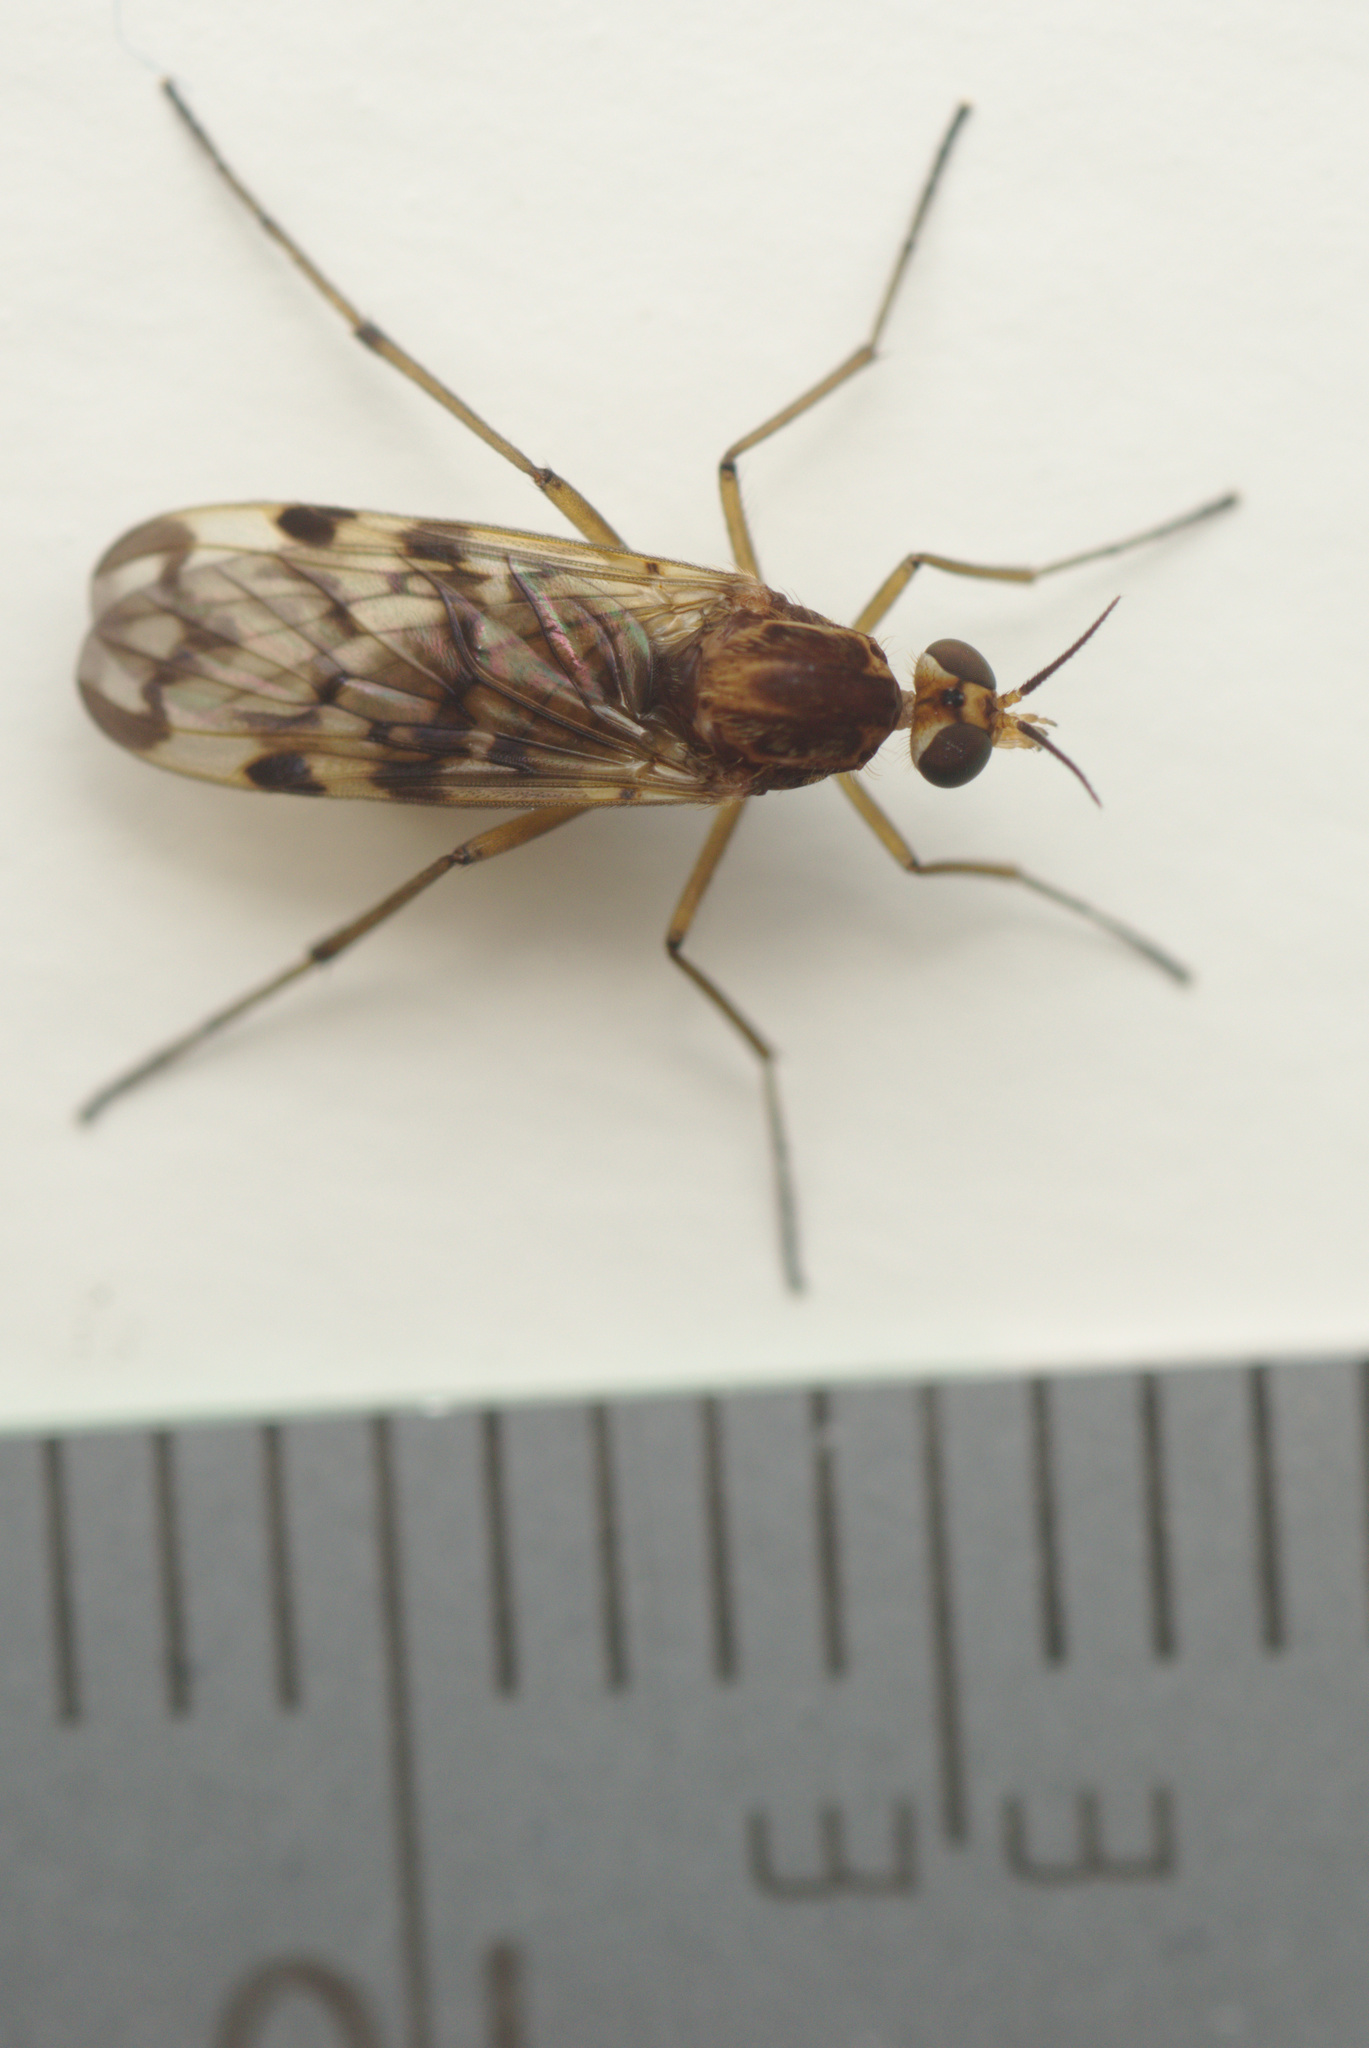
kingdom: Animalia
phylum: Arthropoda
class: Insecta
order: Diptera
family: Anisopodidae
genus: Sylvicola
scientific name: Sylvicola dubius
